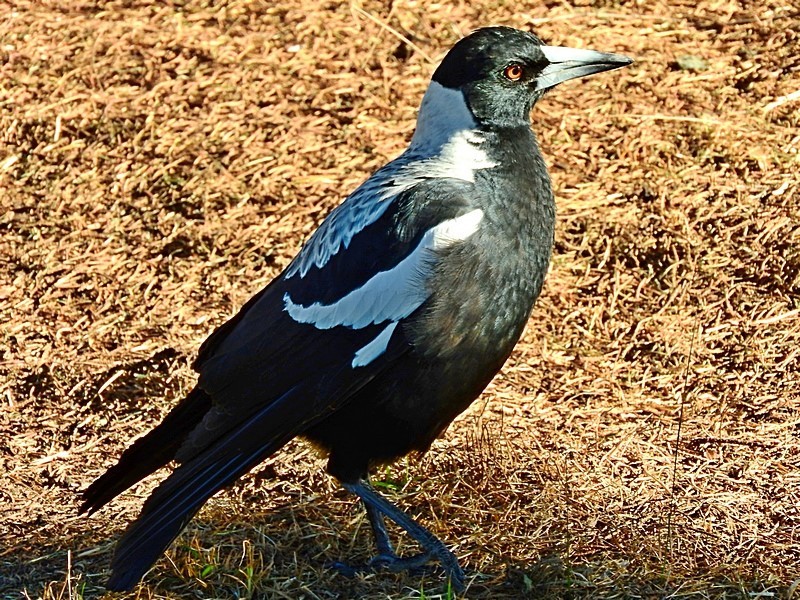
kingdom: Animalia
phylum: Chordata
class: Aves
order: Passeriformes
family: Cracticidae
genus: Gymnorhina
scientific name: Gymnorhina tibicen
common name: Australian magpie
